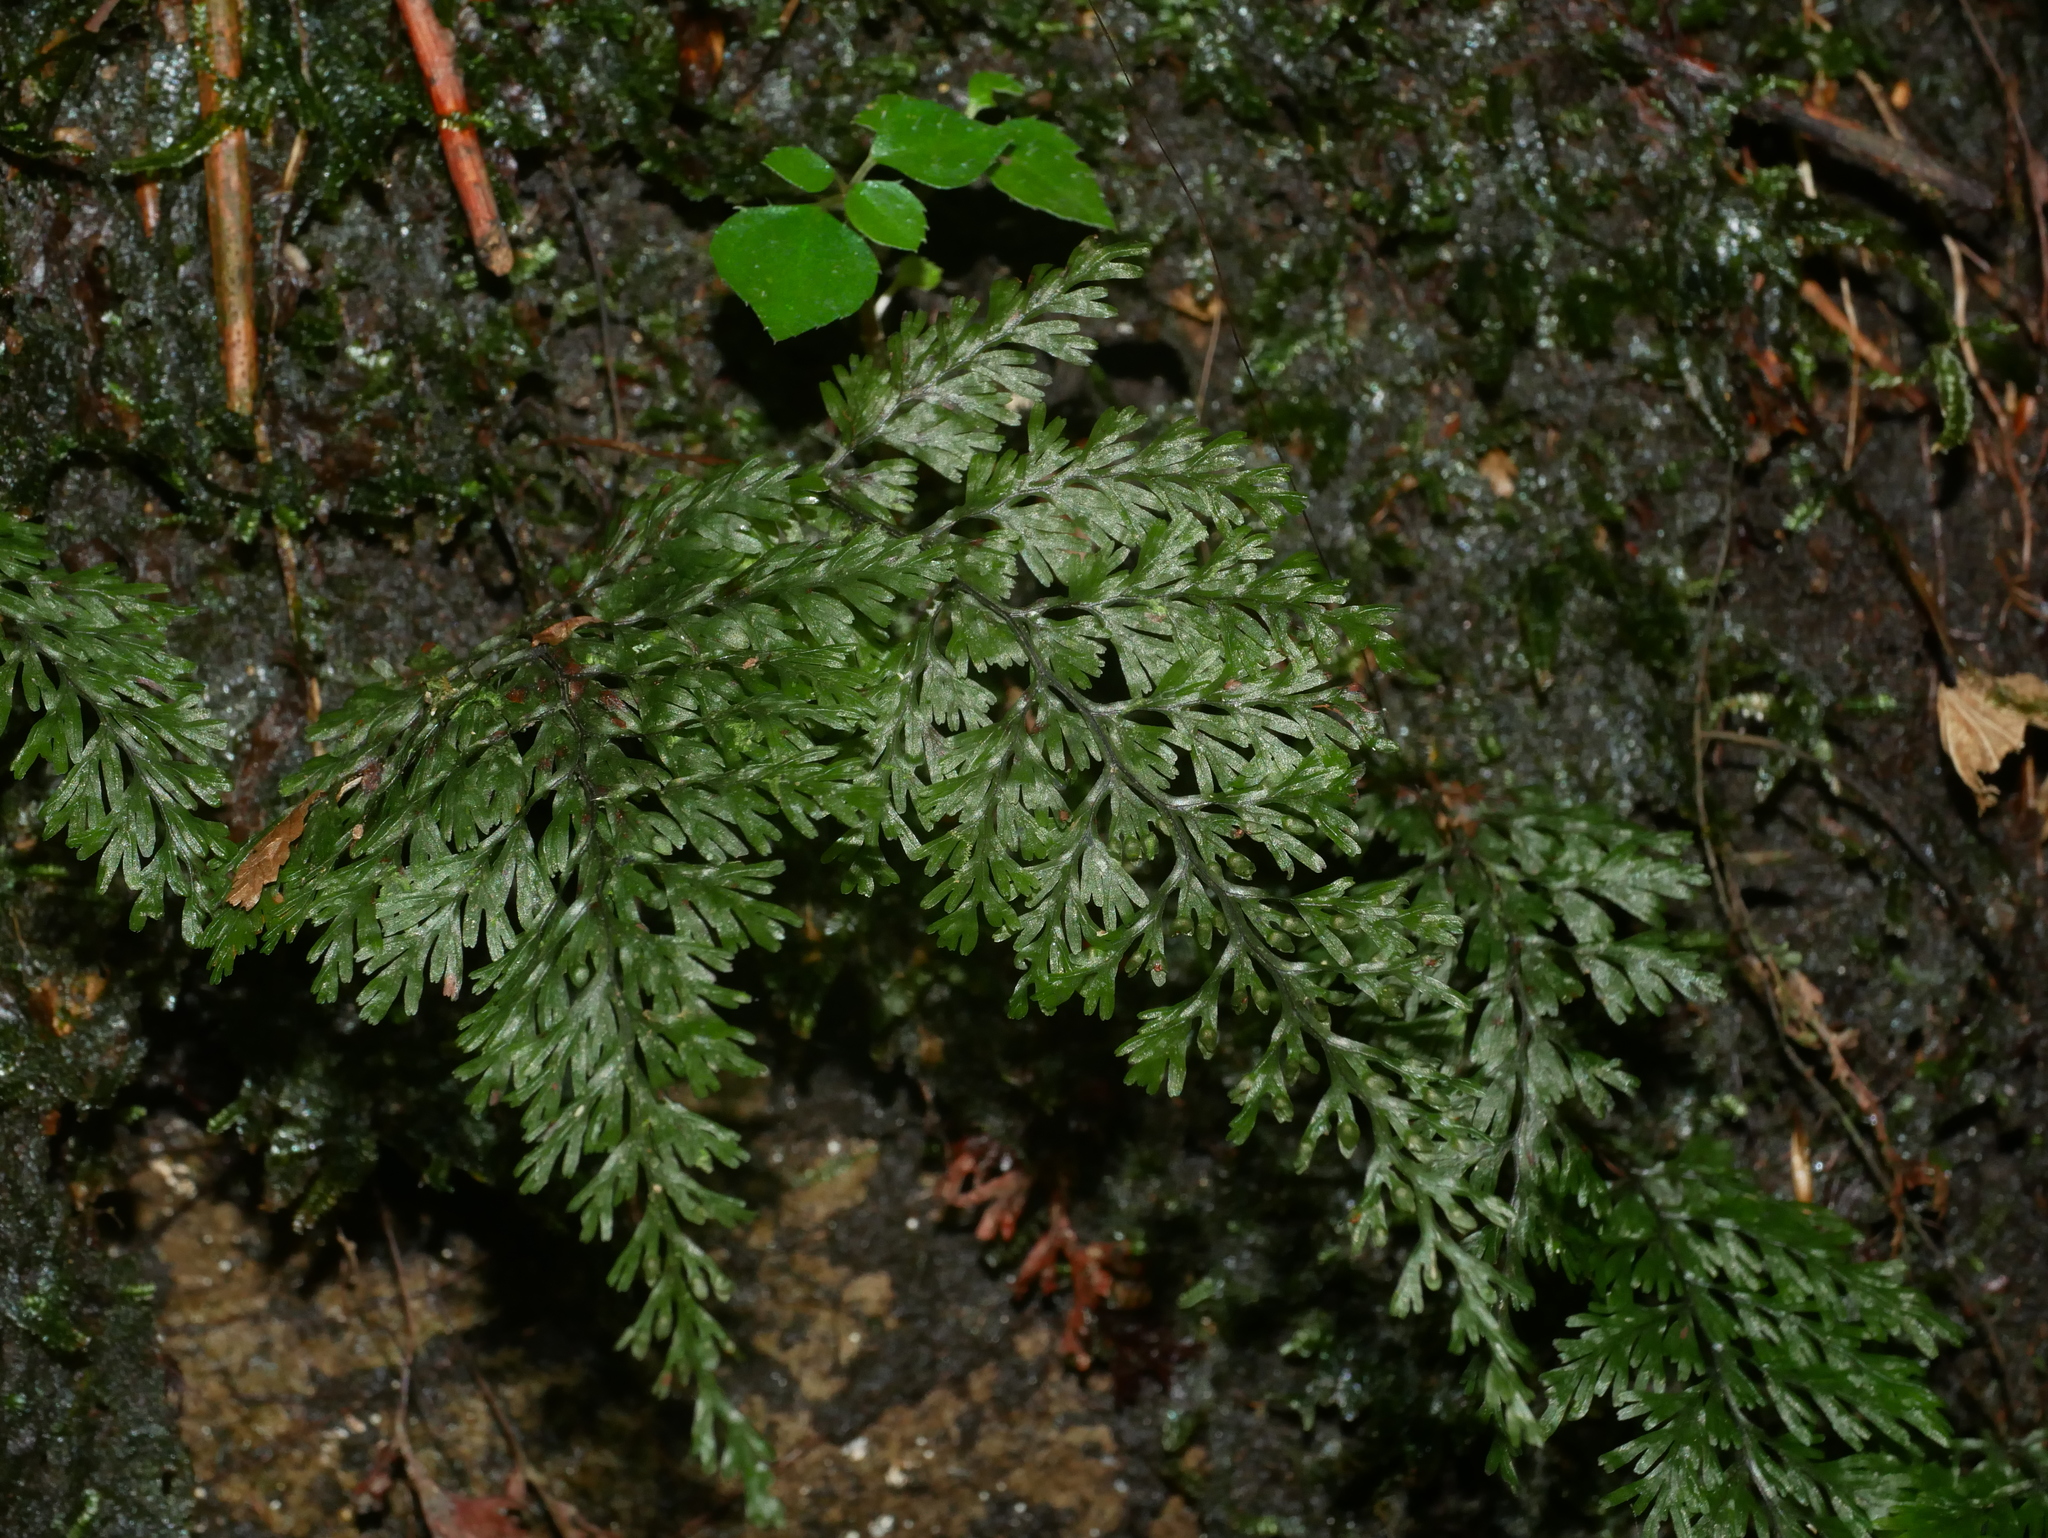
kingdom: Plantae
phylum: Tracheophyta
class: Polypodiopsida
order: Hymenophyllales
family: Hymenophyllaceae
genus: Callistopteris
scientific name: Callistopteris polyantha
